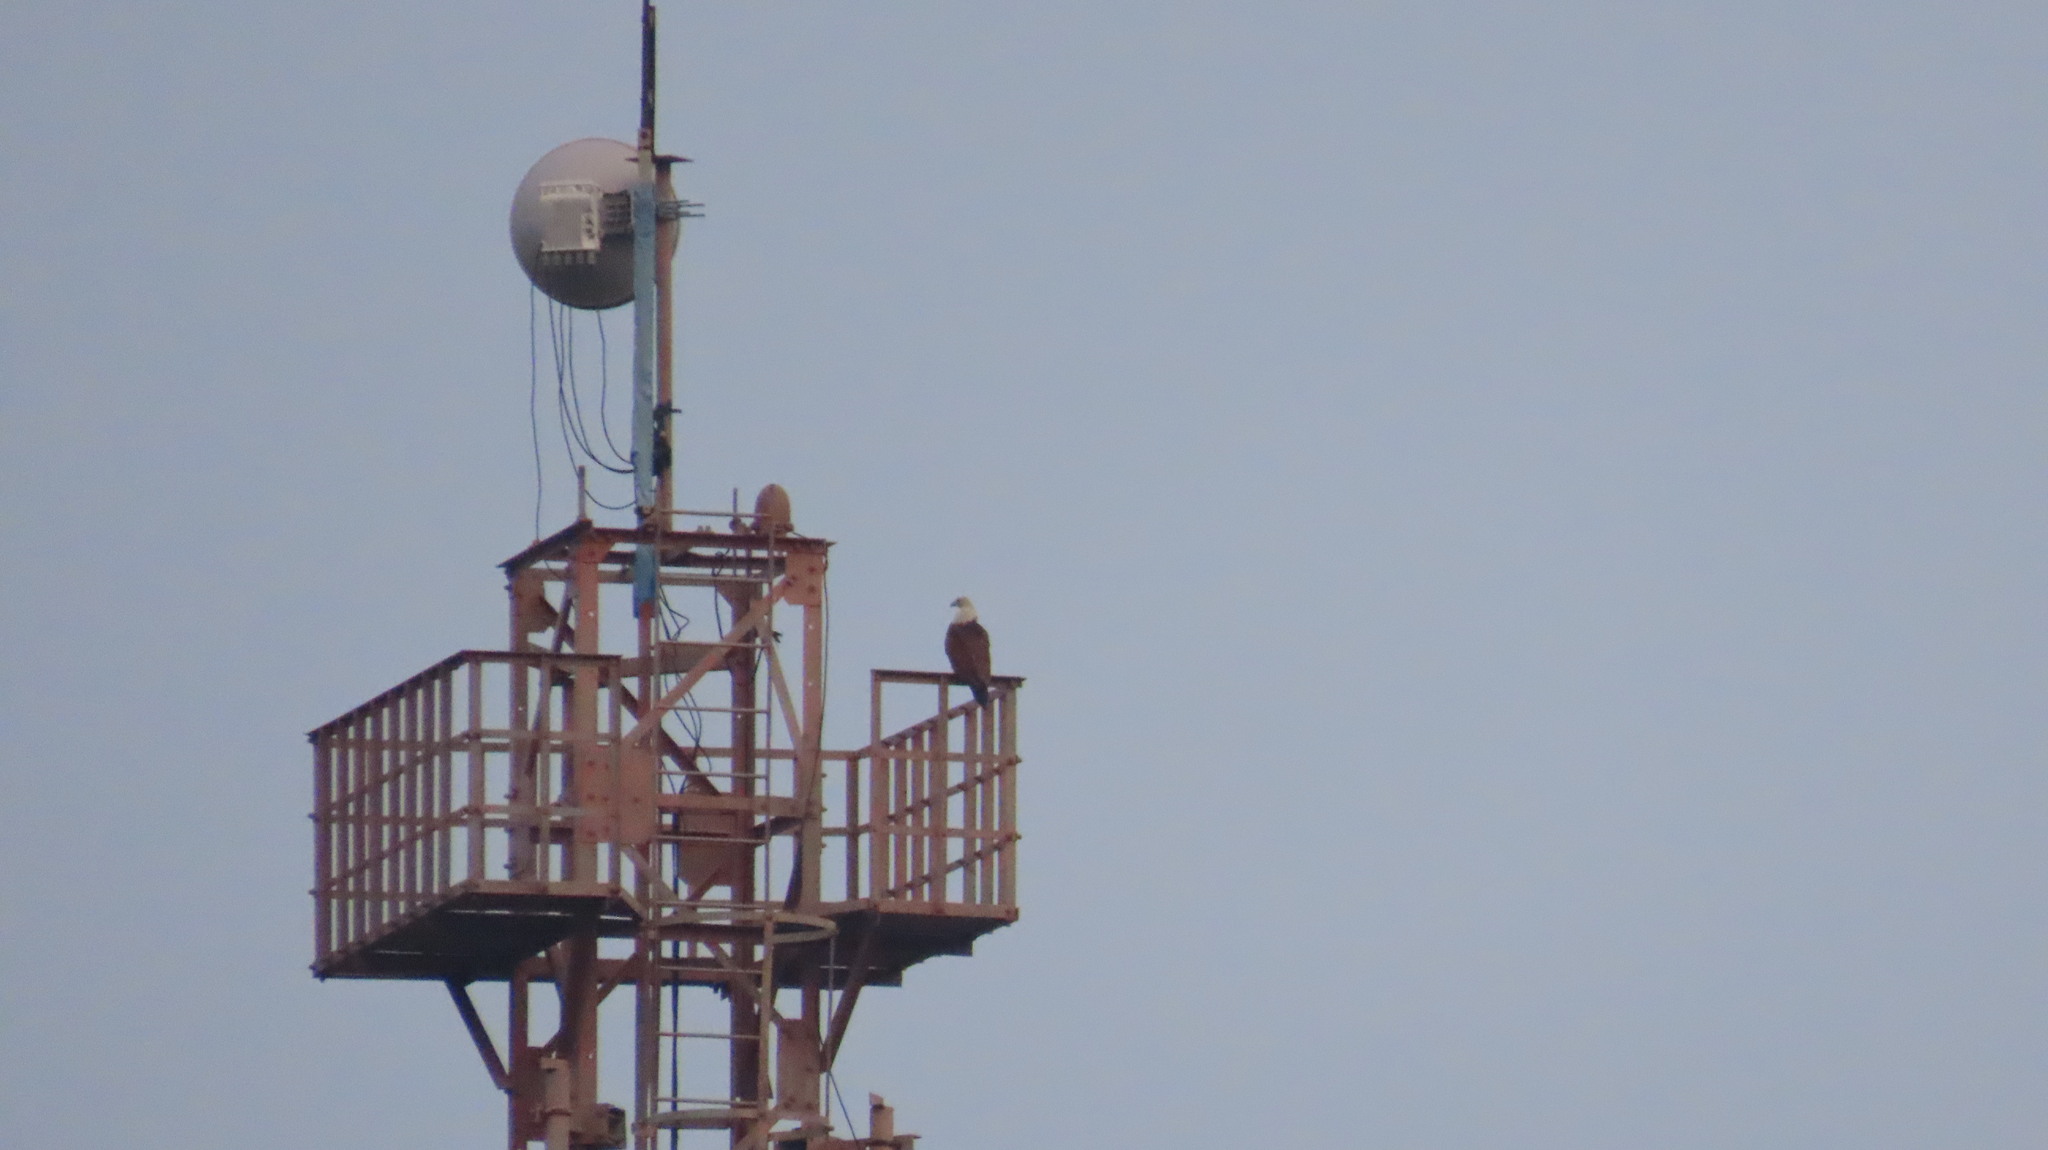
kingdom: Animalia
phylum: Chordata
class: Aves
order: Accipitriformes
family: Accipitridae
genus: Haliastur
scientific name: Haliastur indus
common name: Brahminy kite
